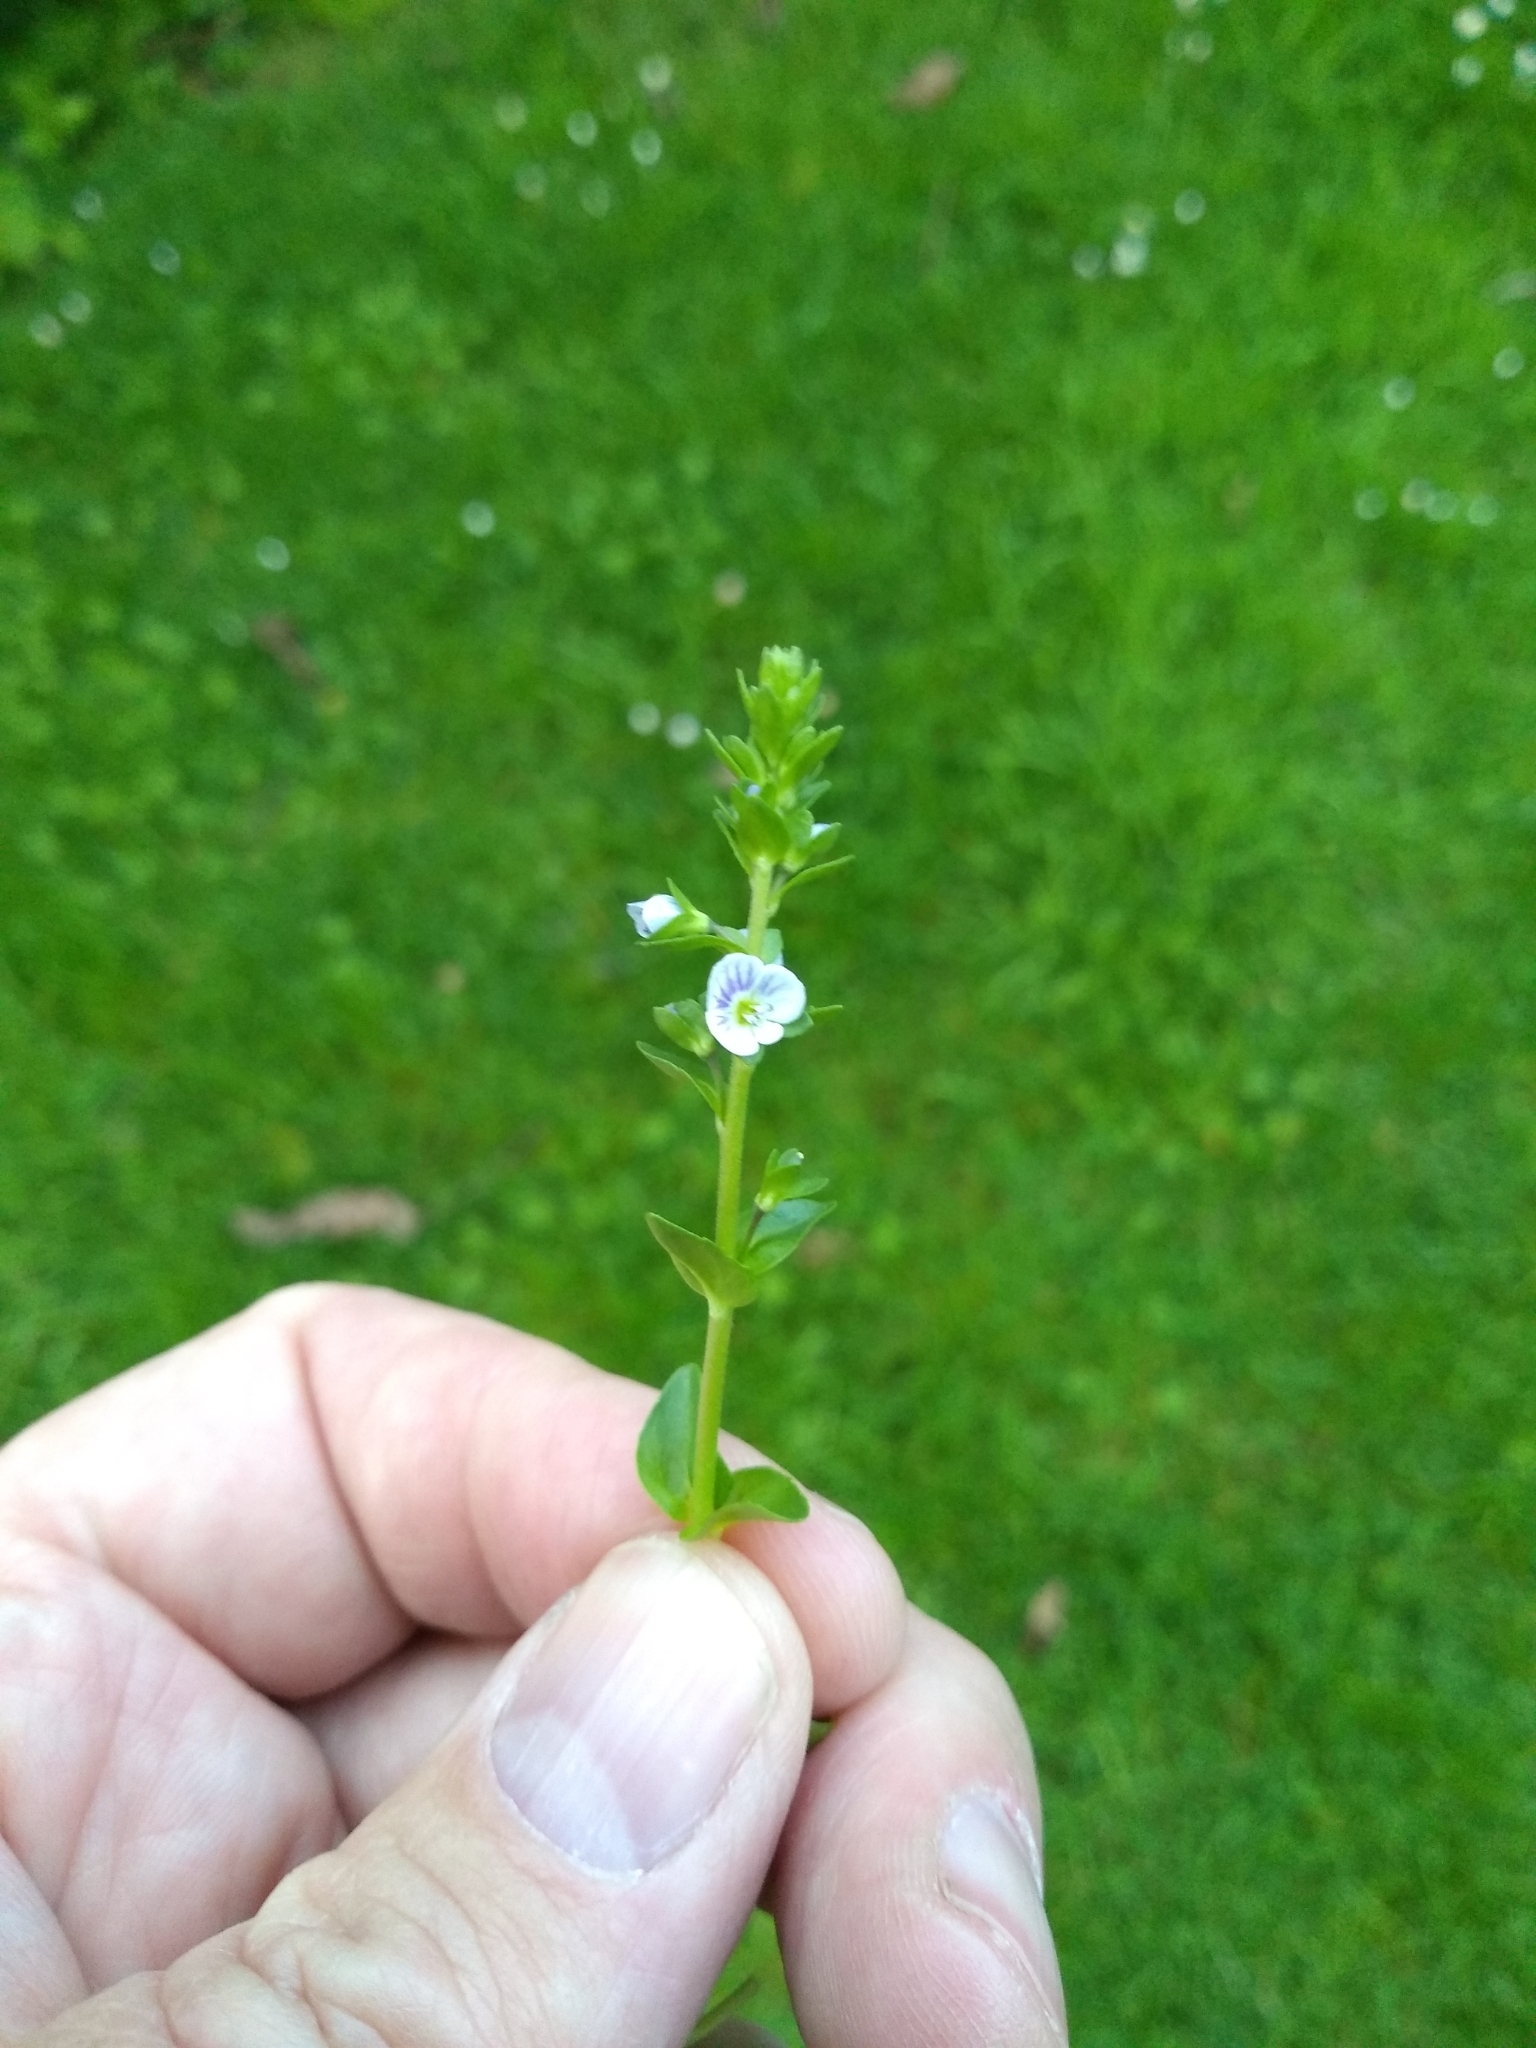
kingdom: Plantae
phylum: Tracheophyta
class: Magnoliopsida
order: Lamiales
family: Plantaginaceae
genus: Veronica
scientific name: Veronica serpyllifolia
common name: Thyme-leaved speedwell
